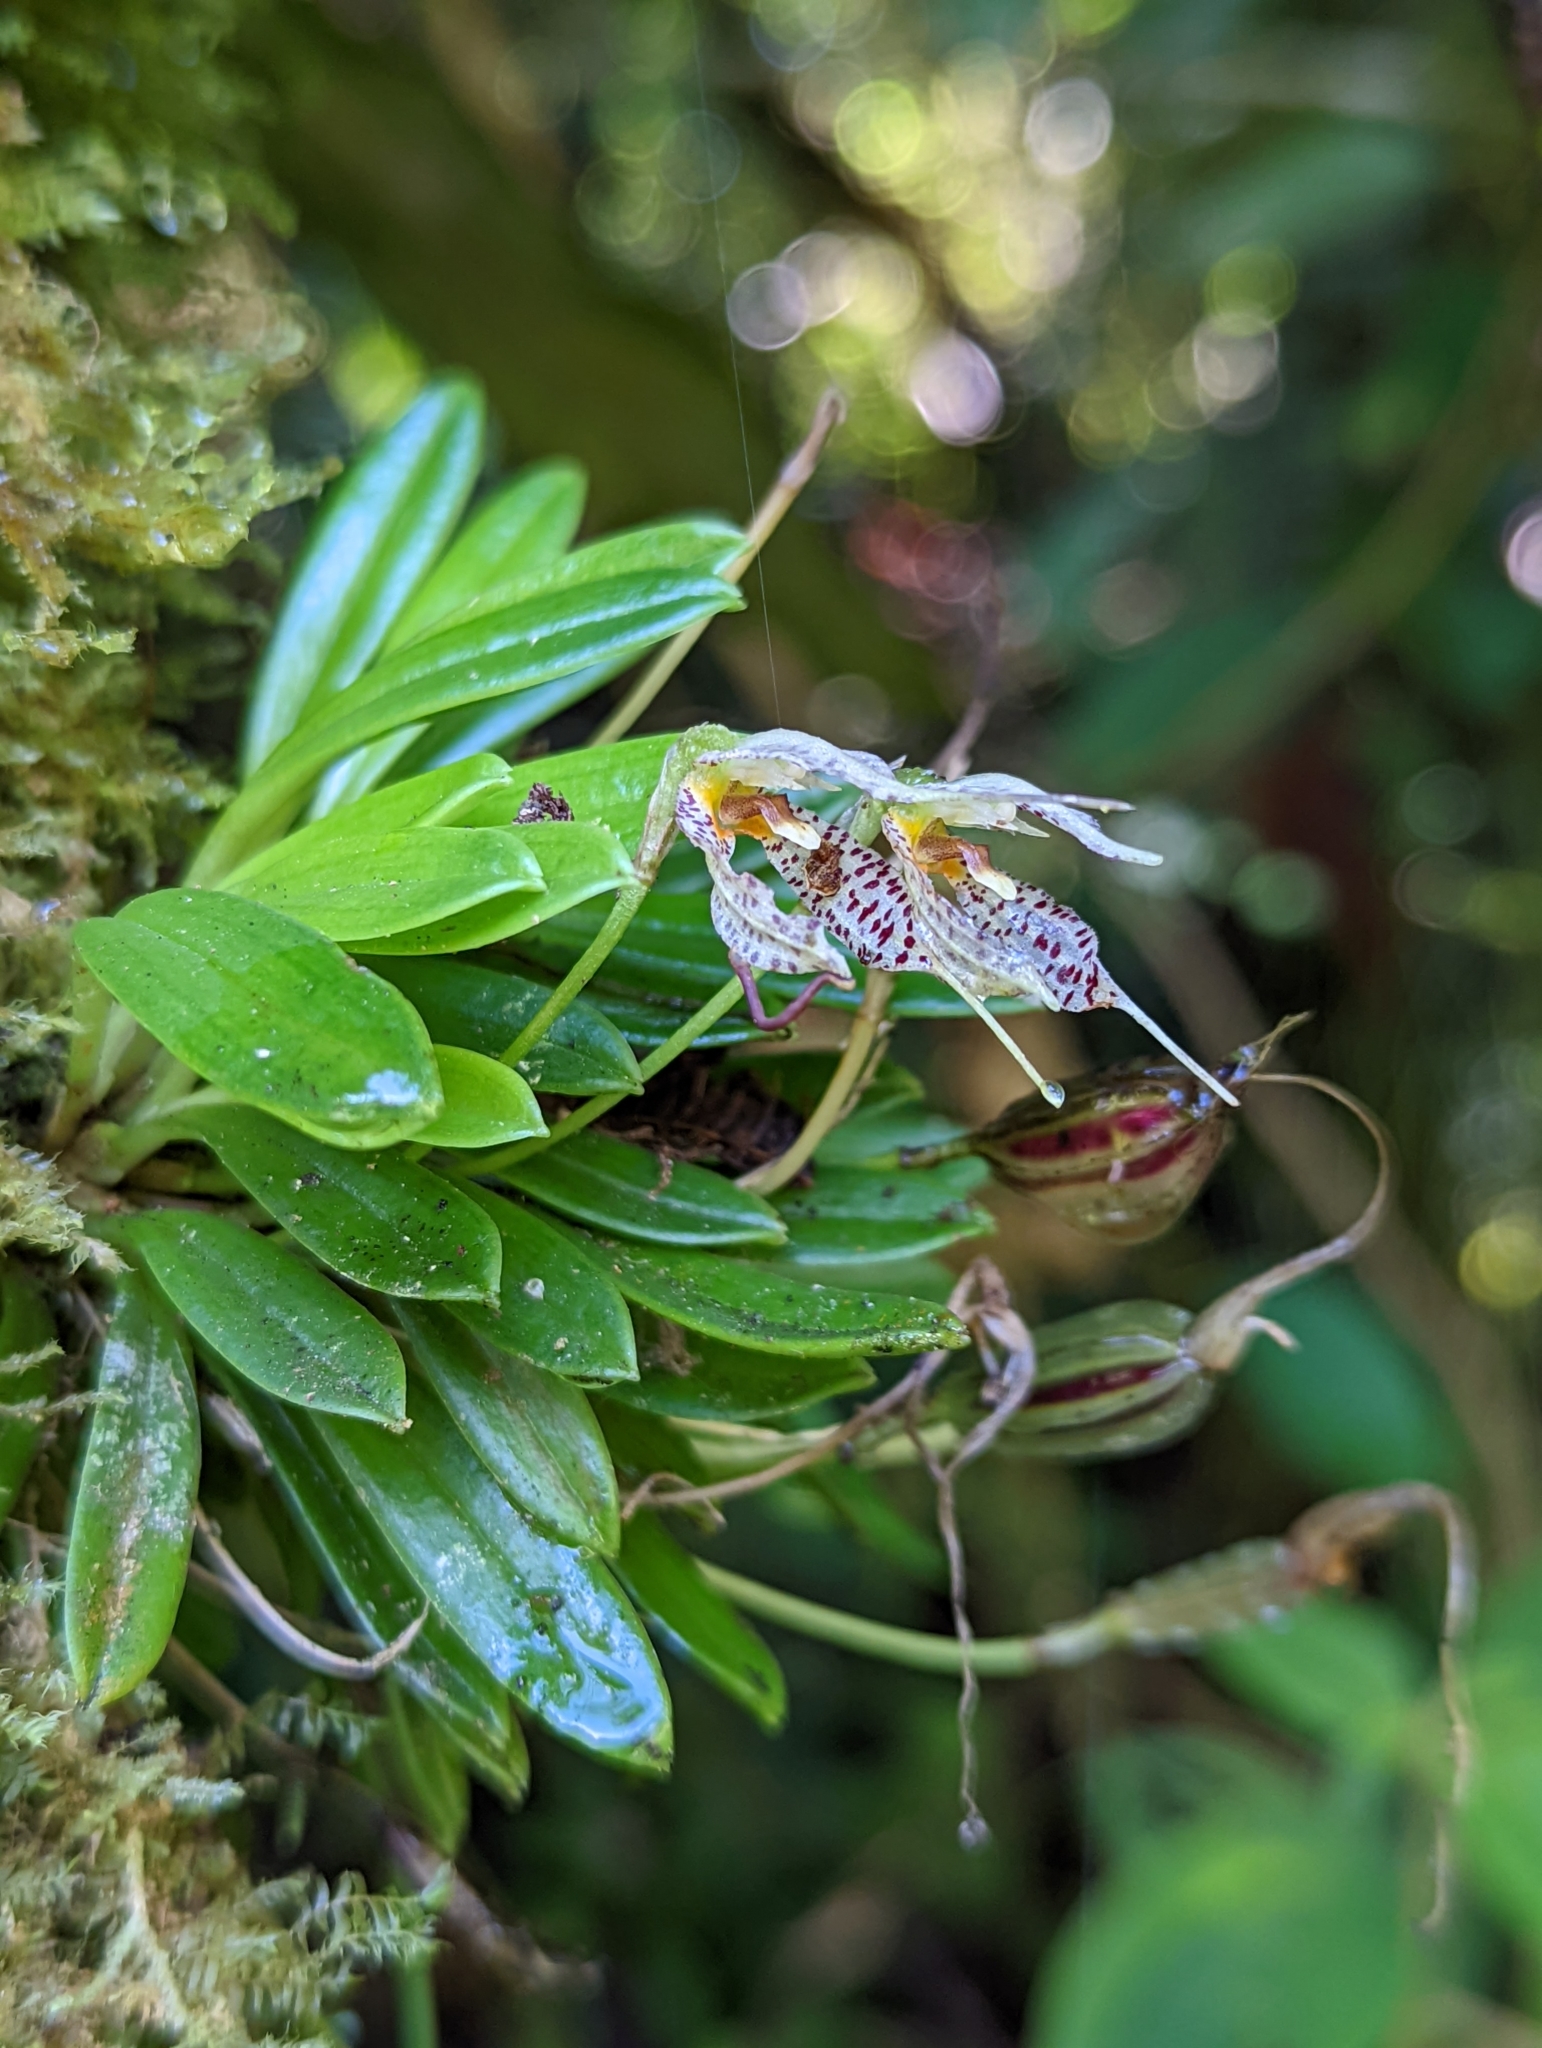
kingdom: Plantae
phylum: Tracheophyta
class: Liliopsida
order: Asparagales
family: Orchidaceae
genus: Masdevallia
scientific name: Masdevallia picturata
